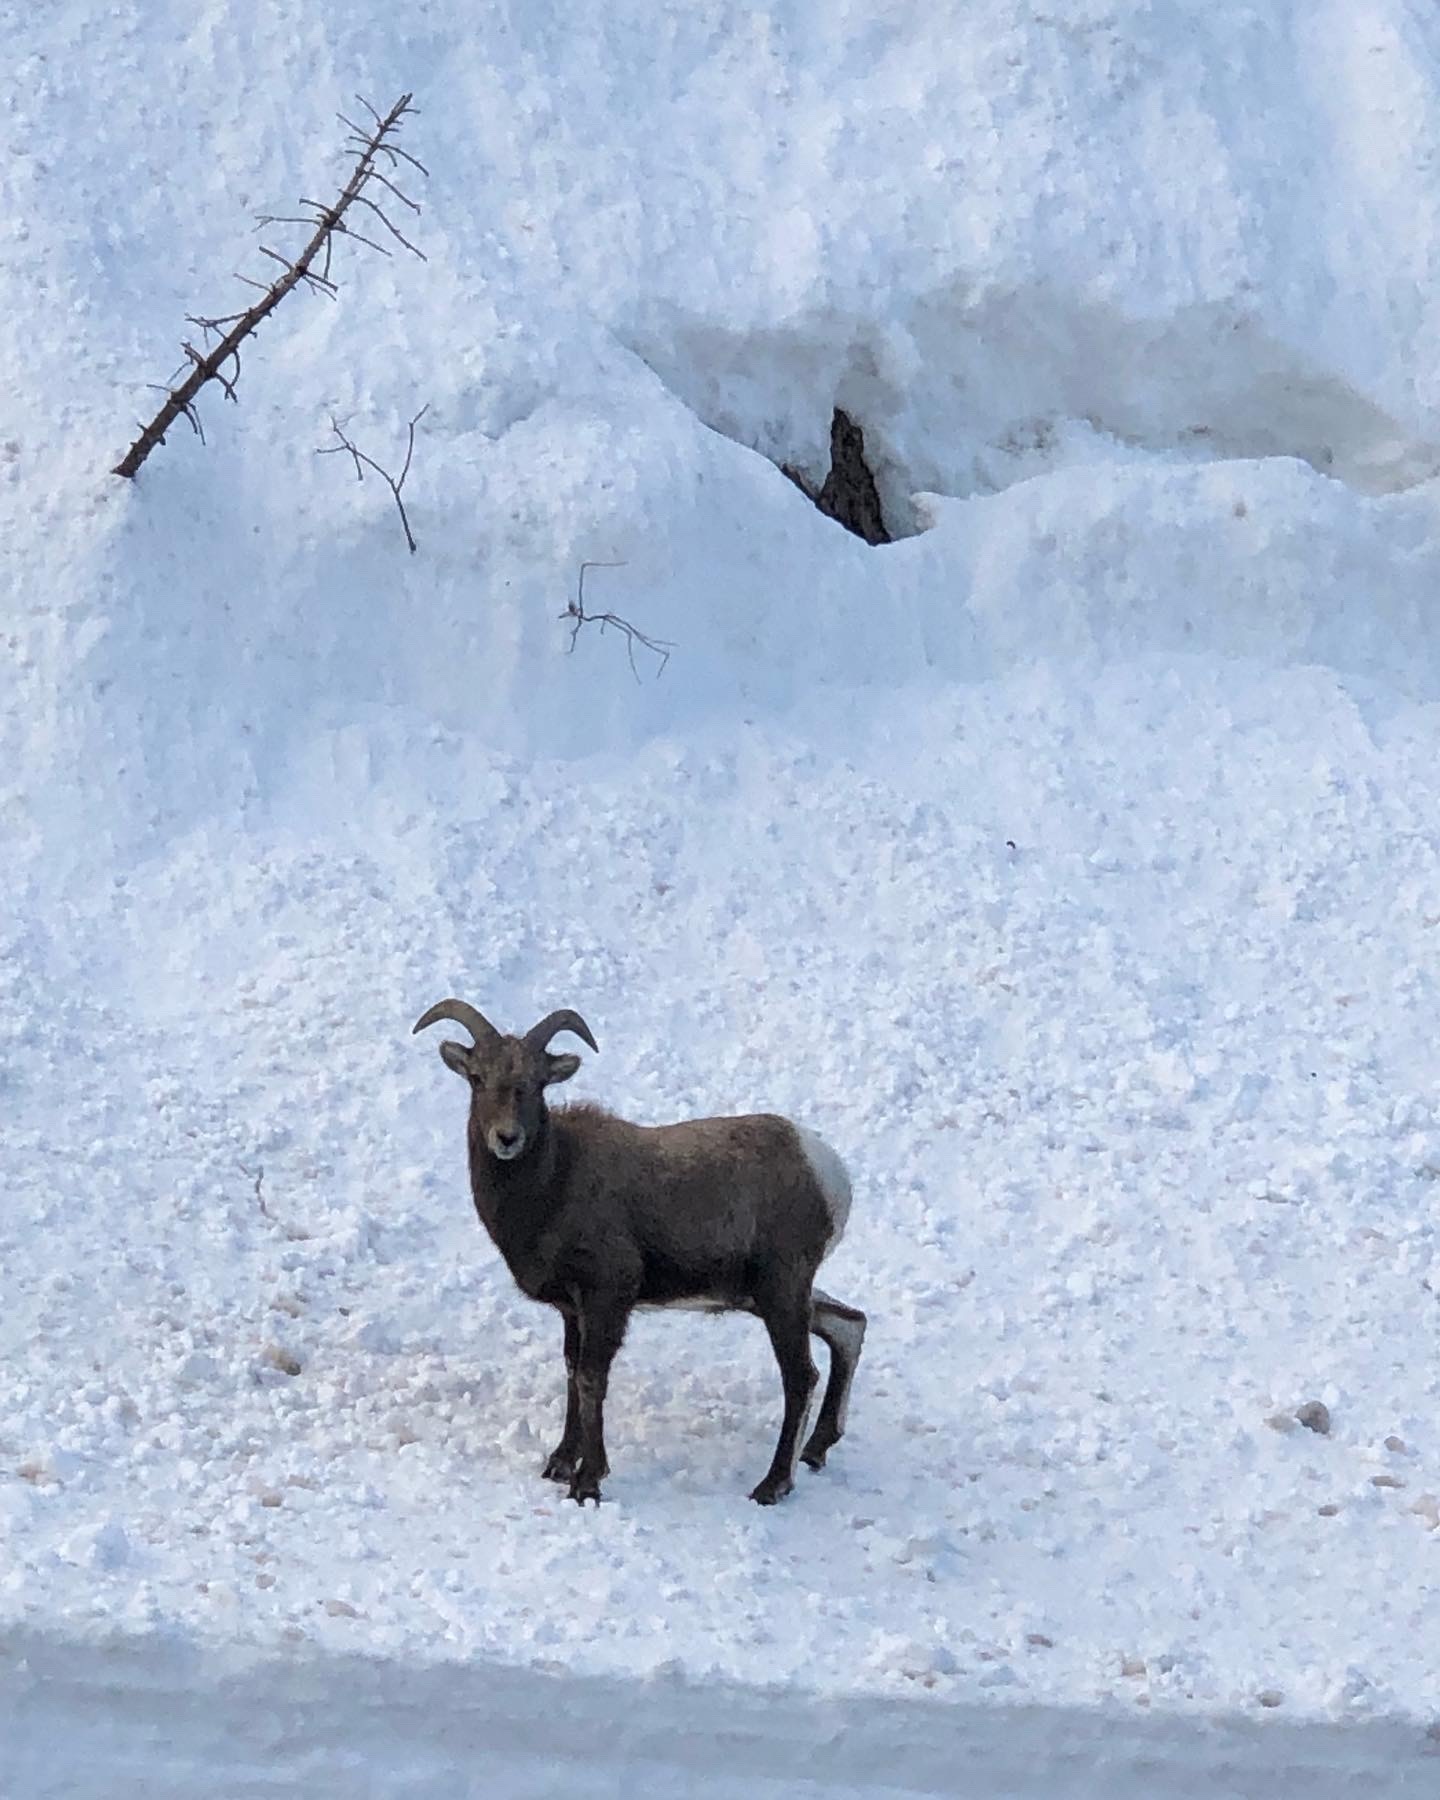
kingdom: Animalia
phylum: Chordata
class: Mammalia
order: Artiodactyla
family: Bovidae
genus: Ovis
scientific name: Ovis canadensis
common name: Bighorn sheep
